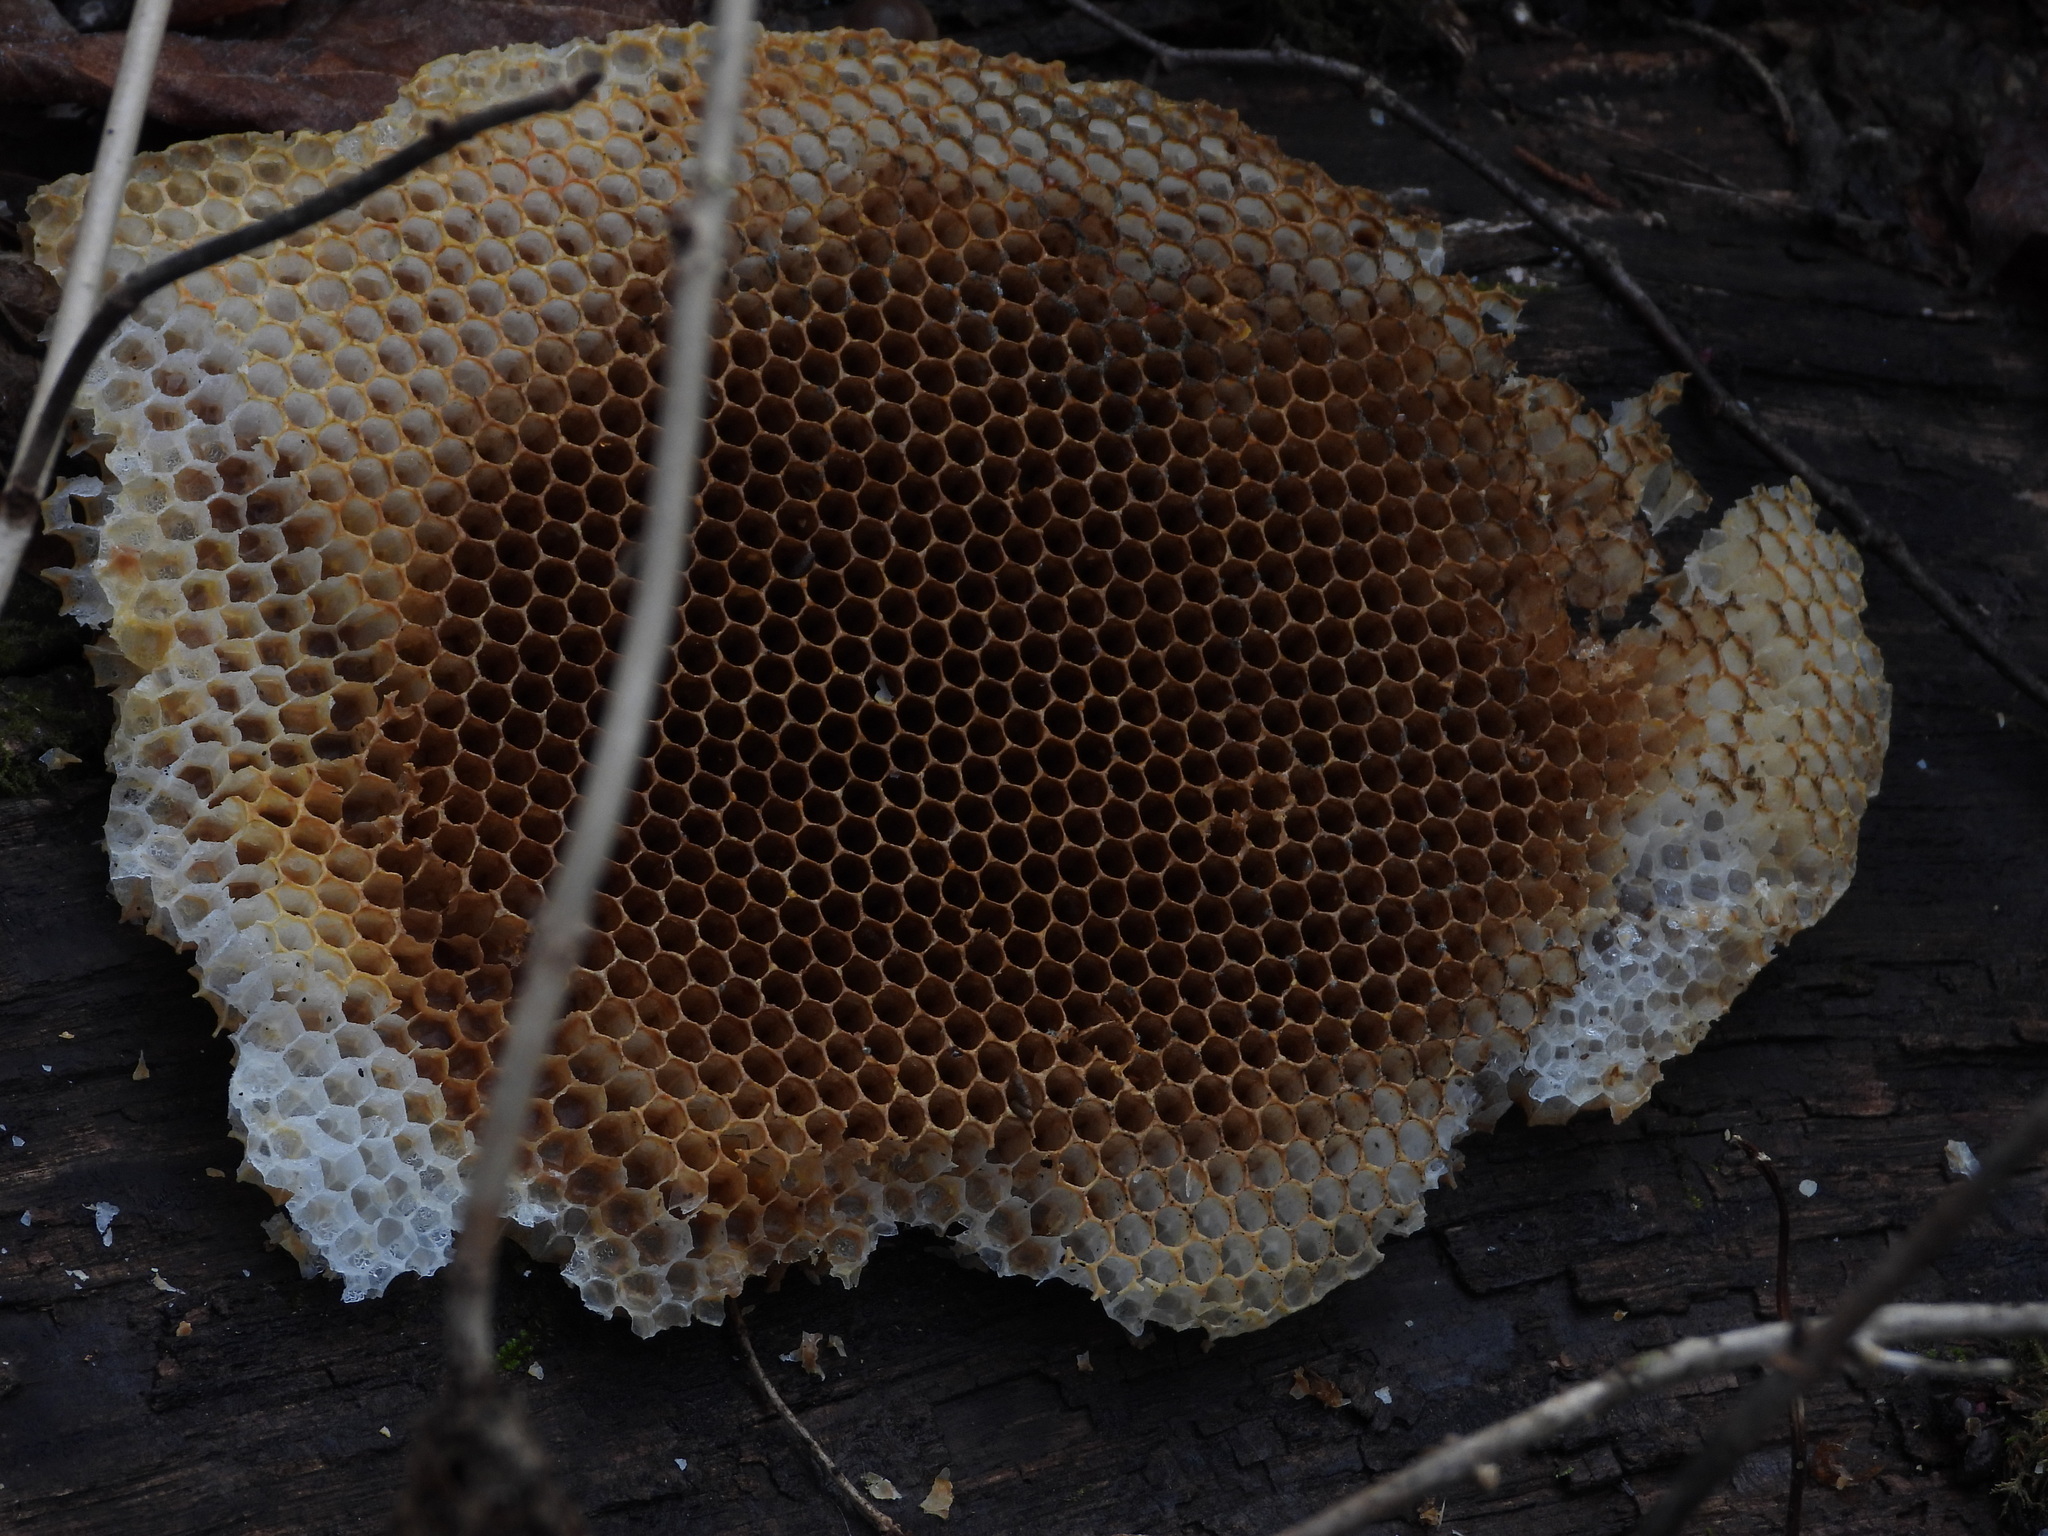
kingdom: Animalia
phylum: Arthropoda
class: Insecta
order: Hymenoptera
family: Apidae
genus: Apis
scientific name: Apis mellifera
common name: Honey bee
